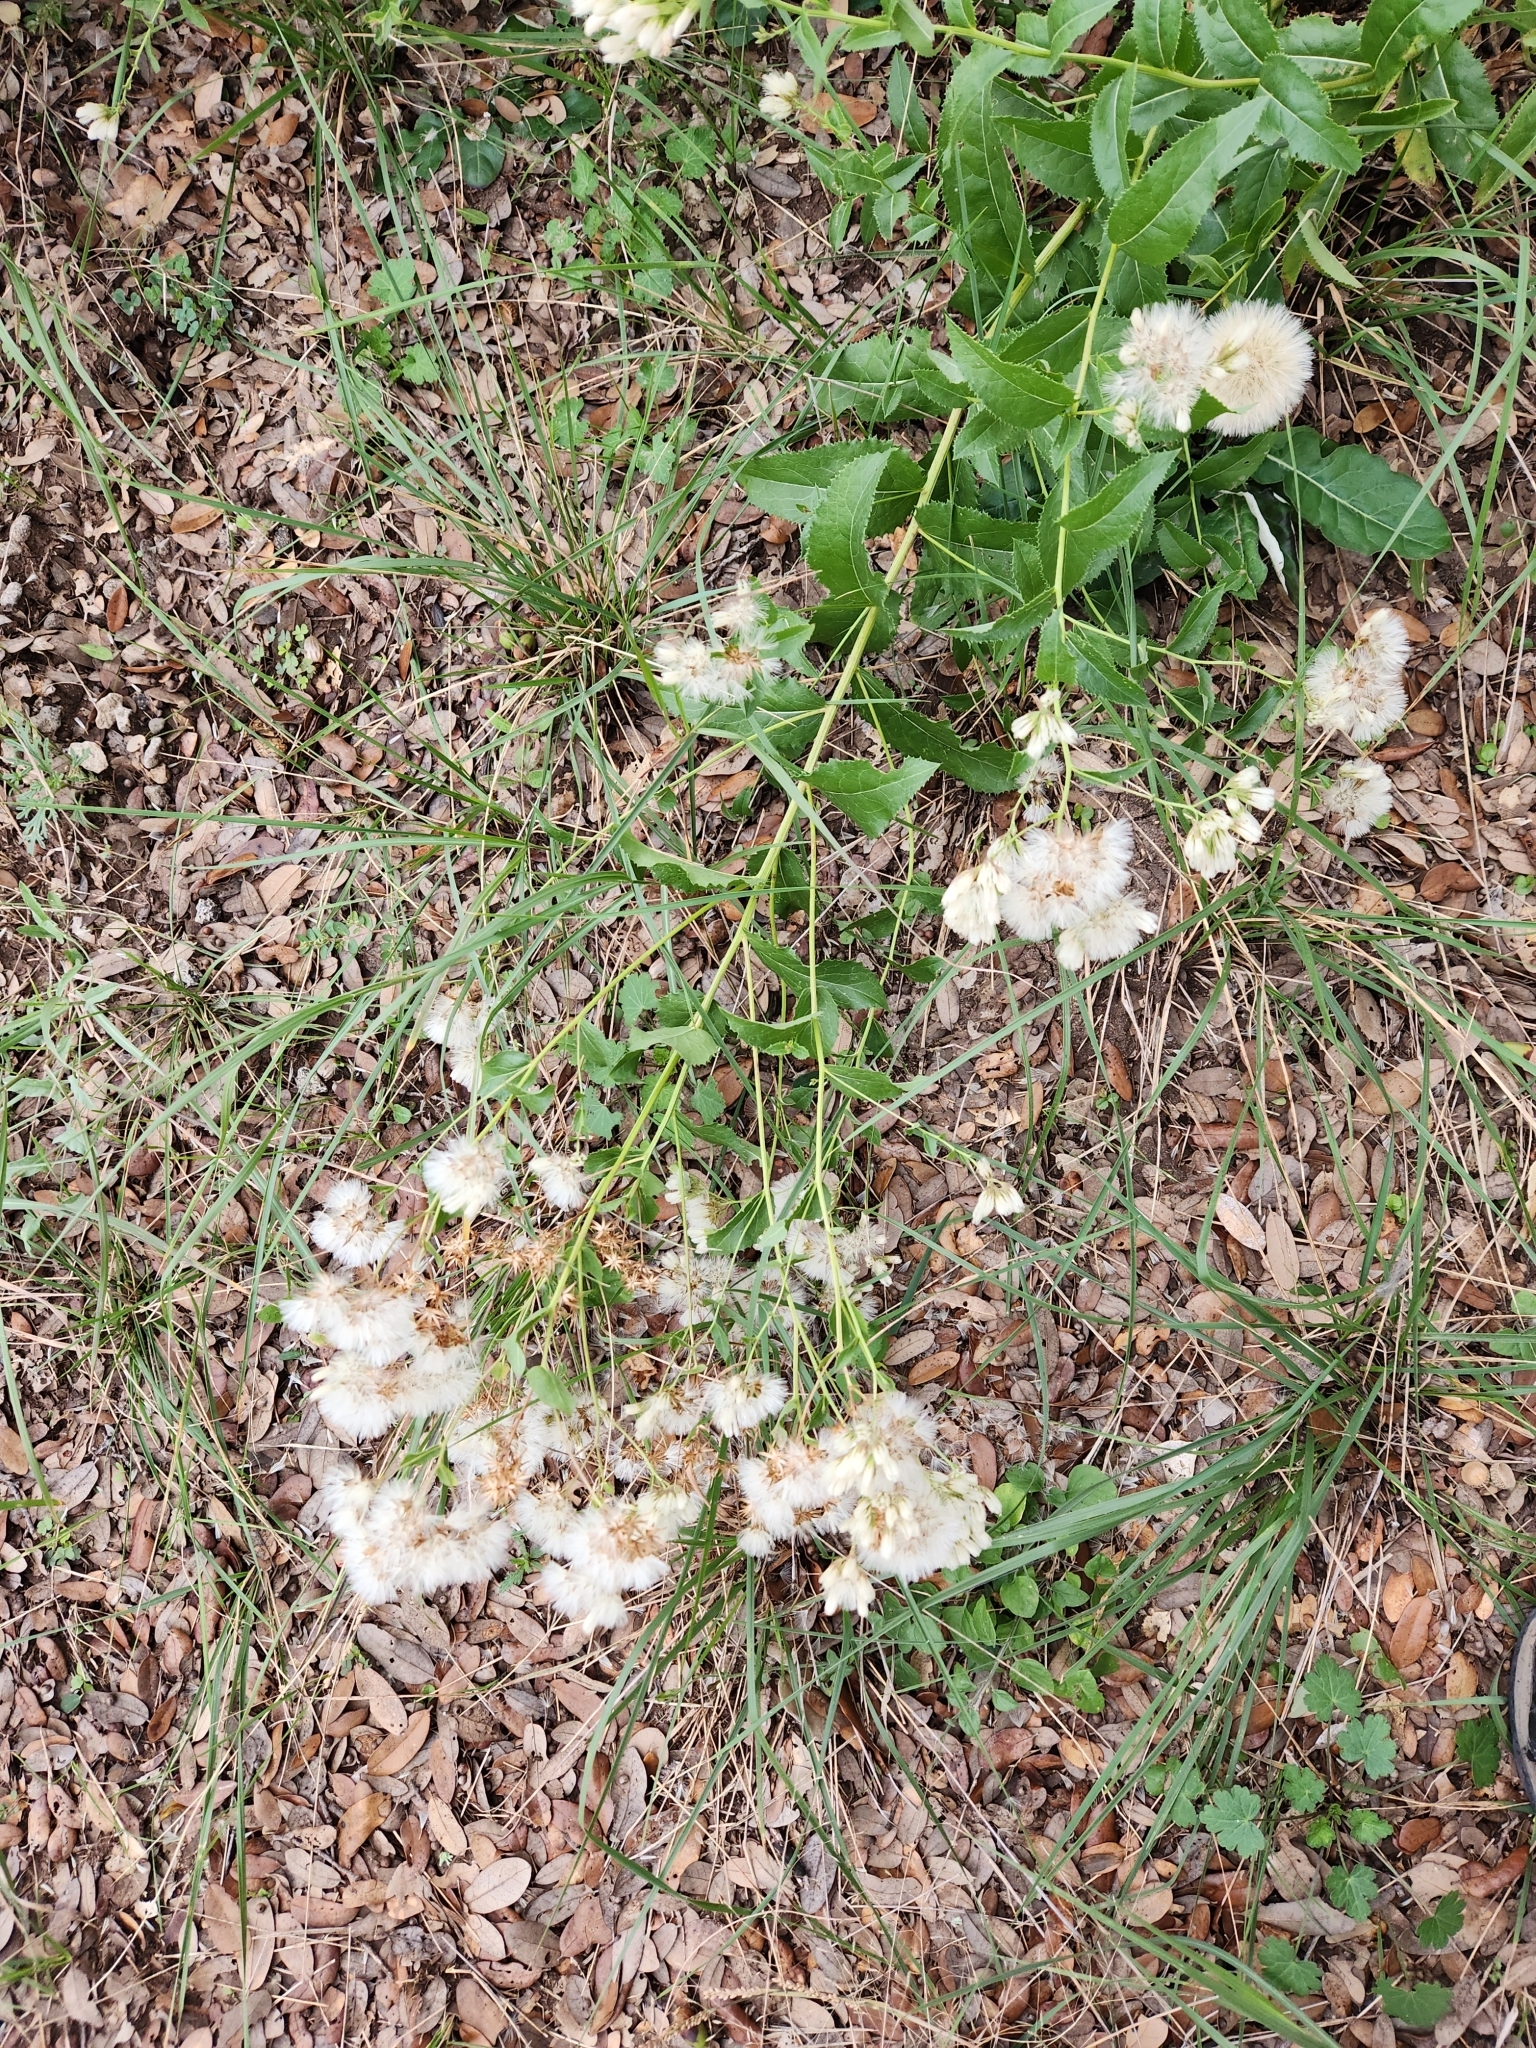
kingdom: Plantae
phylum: Tracheophyta
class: Magnoliopsida
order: Asterales
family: Asteraceae
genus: Acourtia
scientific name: Acourtia wrightii
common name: Brownfoot
